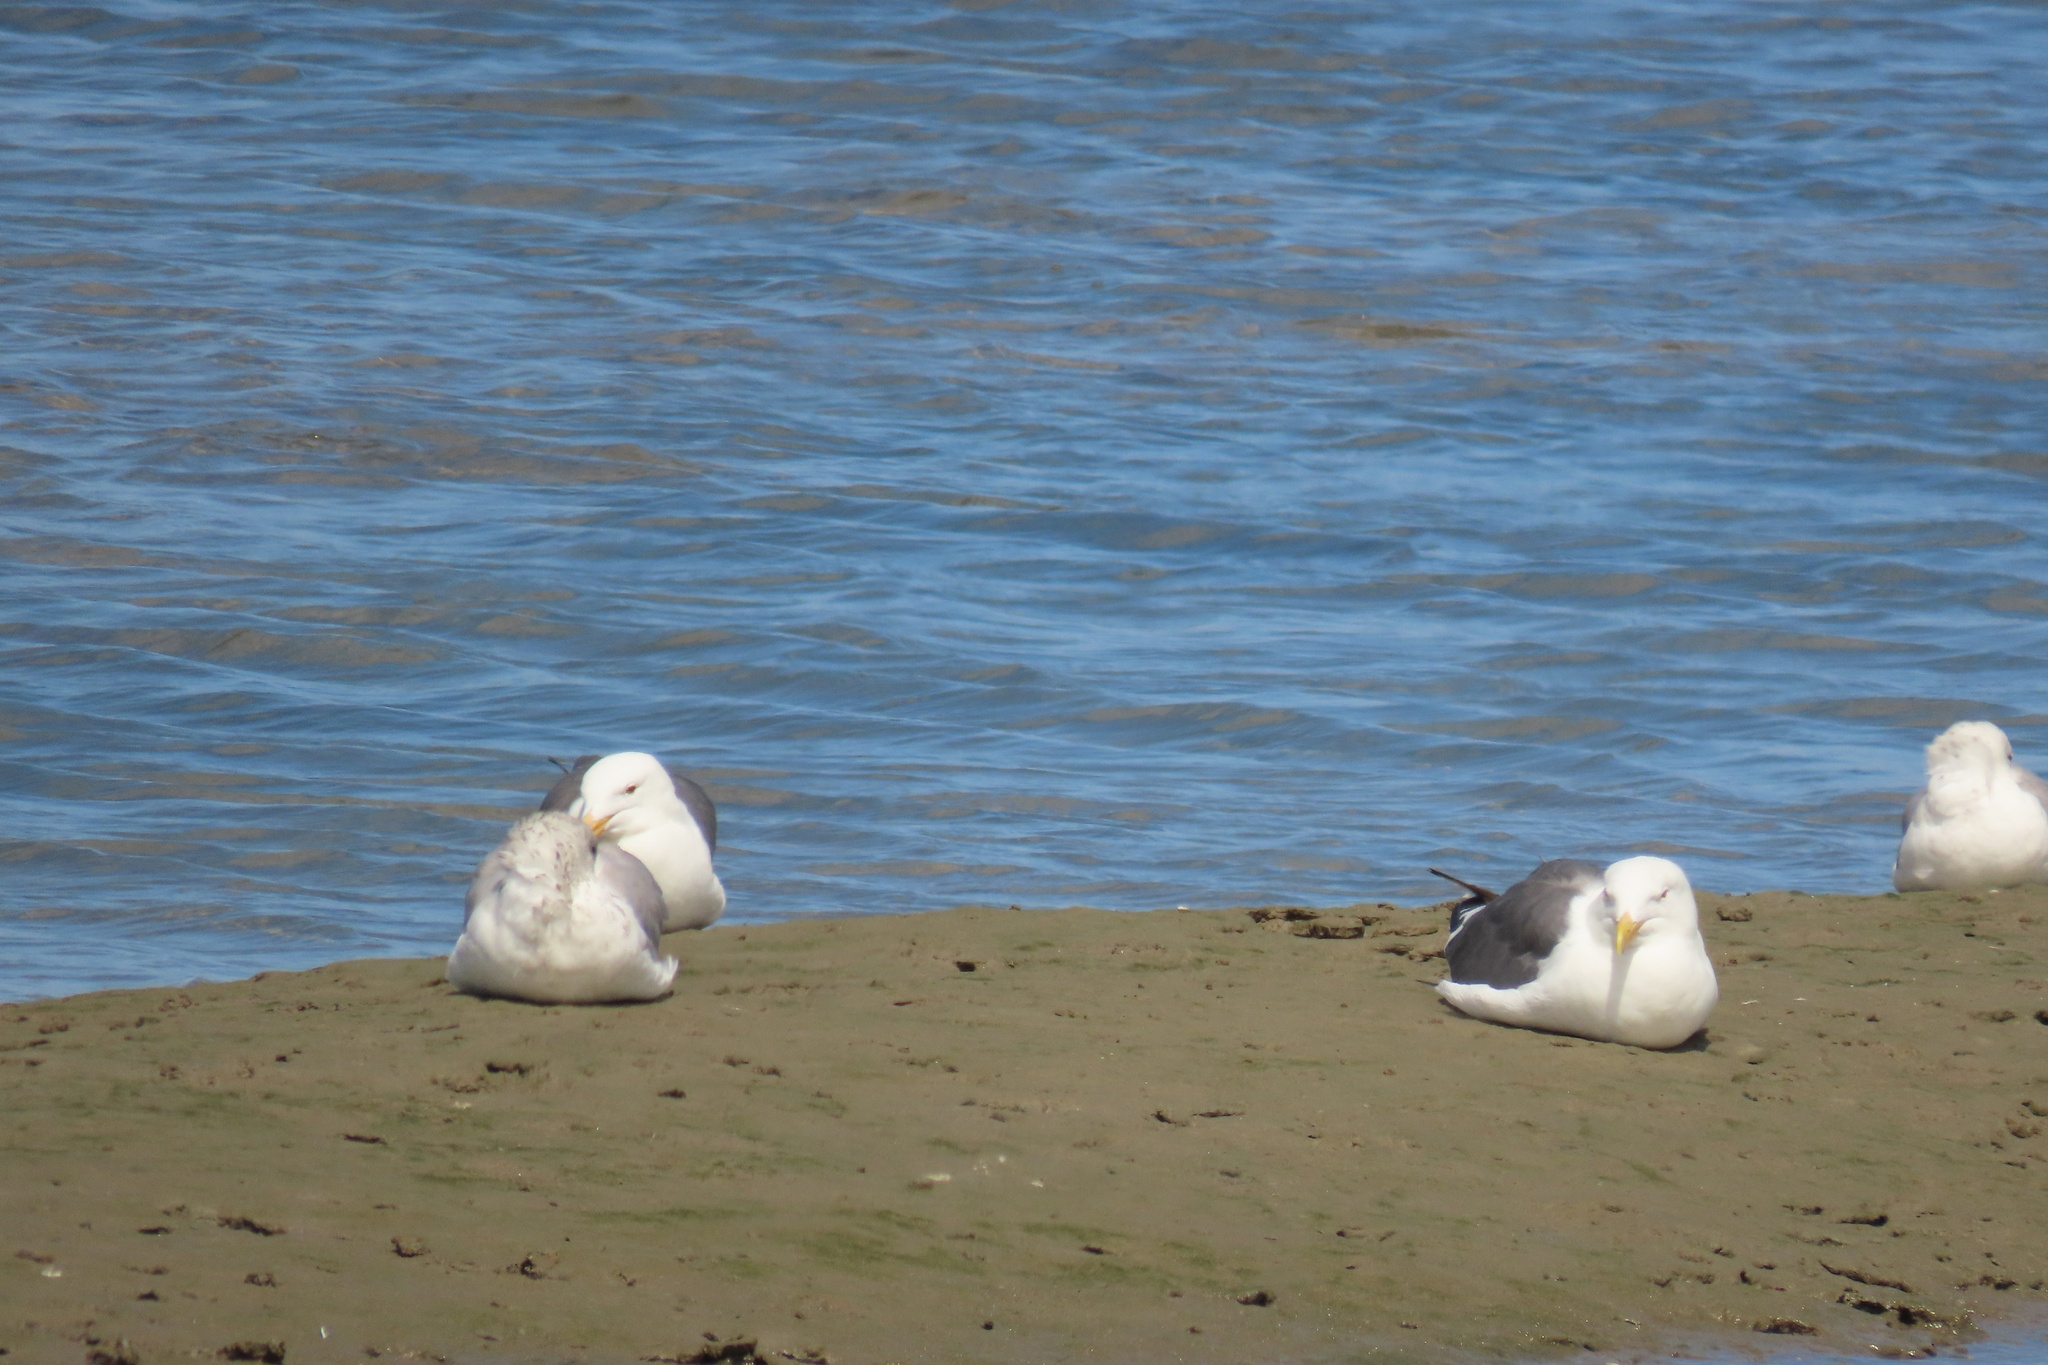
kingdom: Animalia
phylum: Chordata
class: Aves
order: Charadriiformes
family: Laridae
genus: Larus
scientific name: Larus occidentalis
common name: Western gull
